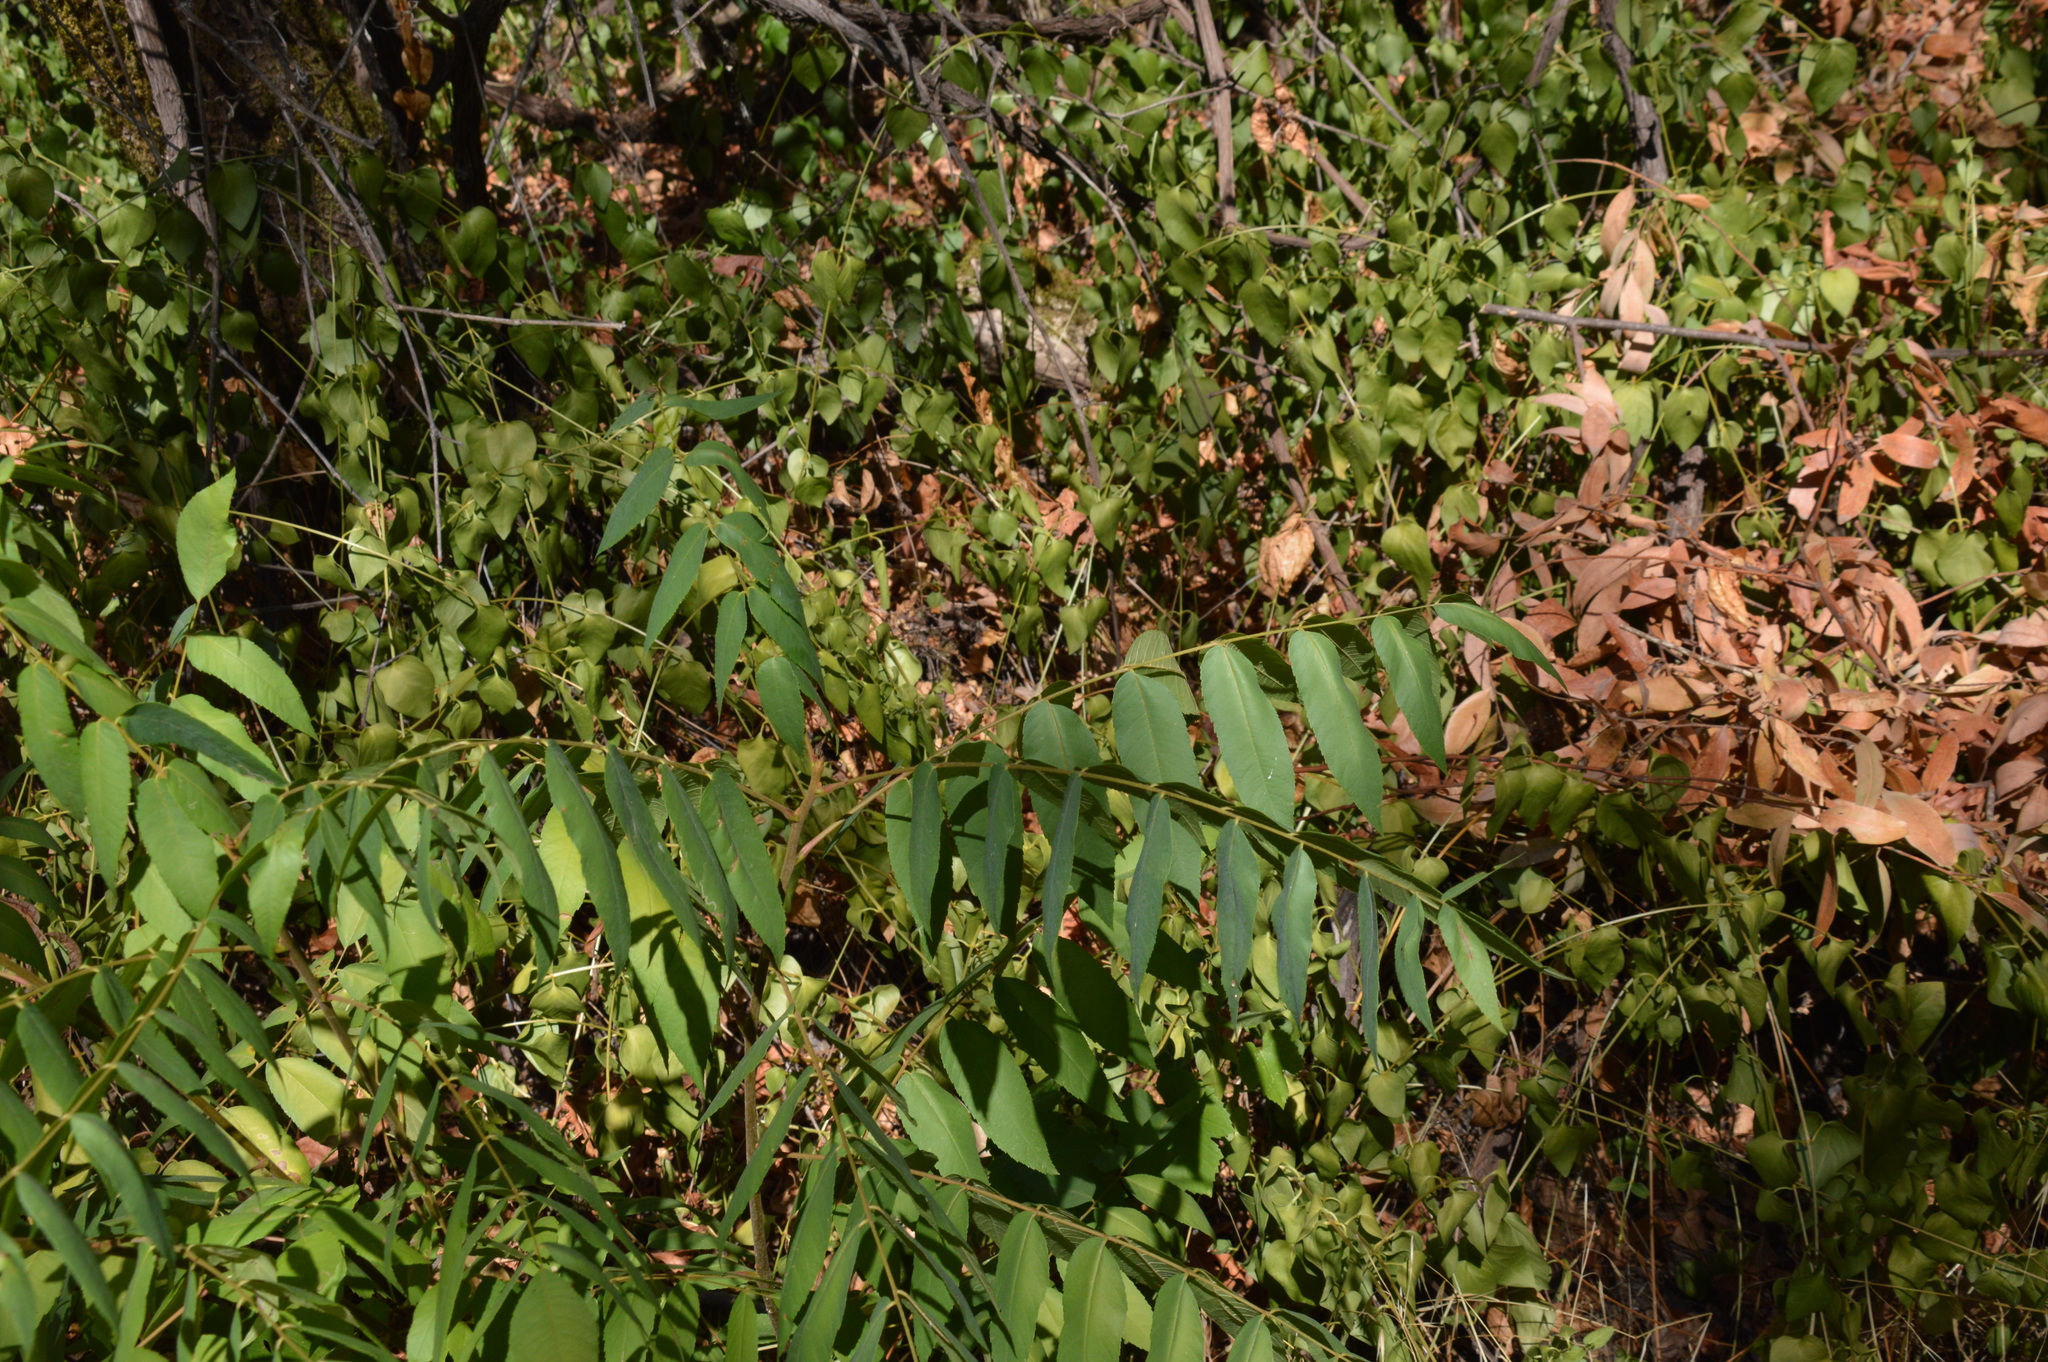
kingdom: Plantae
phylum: Tracheophyta
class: Magnoliopsida
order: Sapindales
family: Anacardiaceae
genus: Pistacia
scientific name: Pistacia chinensis
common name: Chinese pistache
